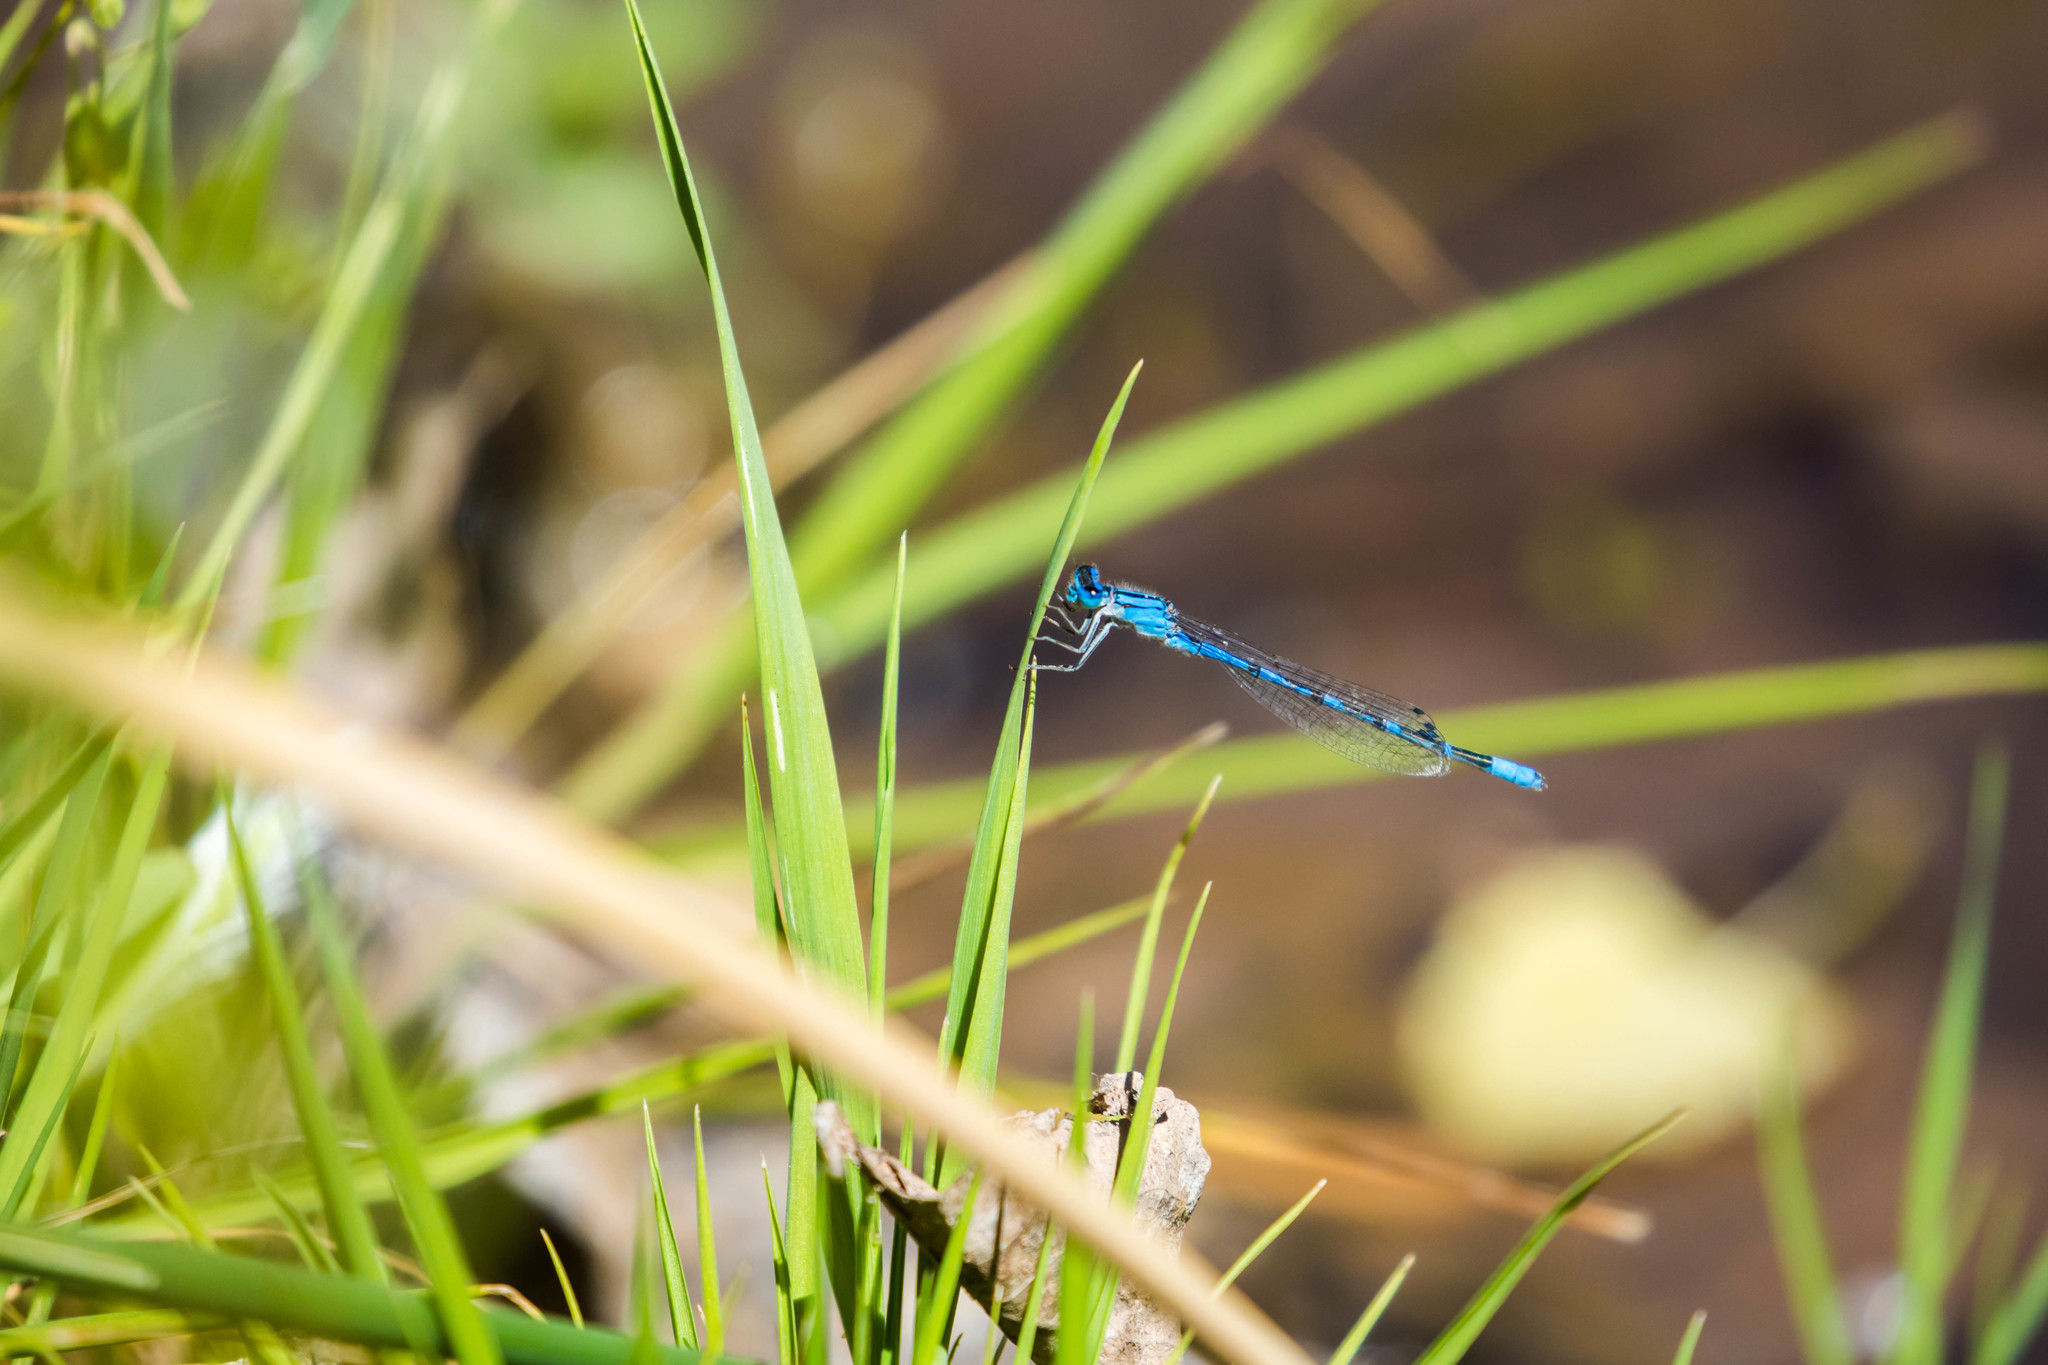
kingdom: Animalia
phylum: Arthropoda
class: Insecta
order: Odonata
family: Coenagrionidae
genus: Enallagma
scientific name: Enallagma praevarum
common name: Arroyo bluet
